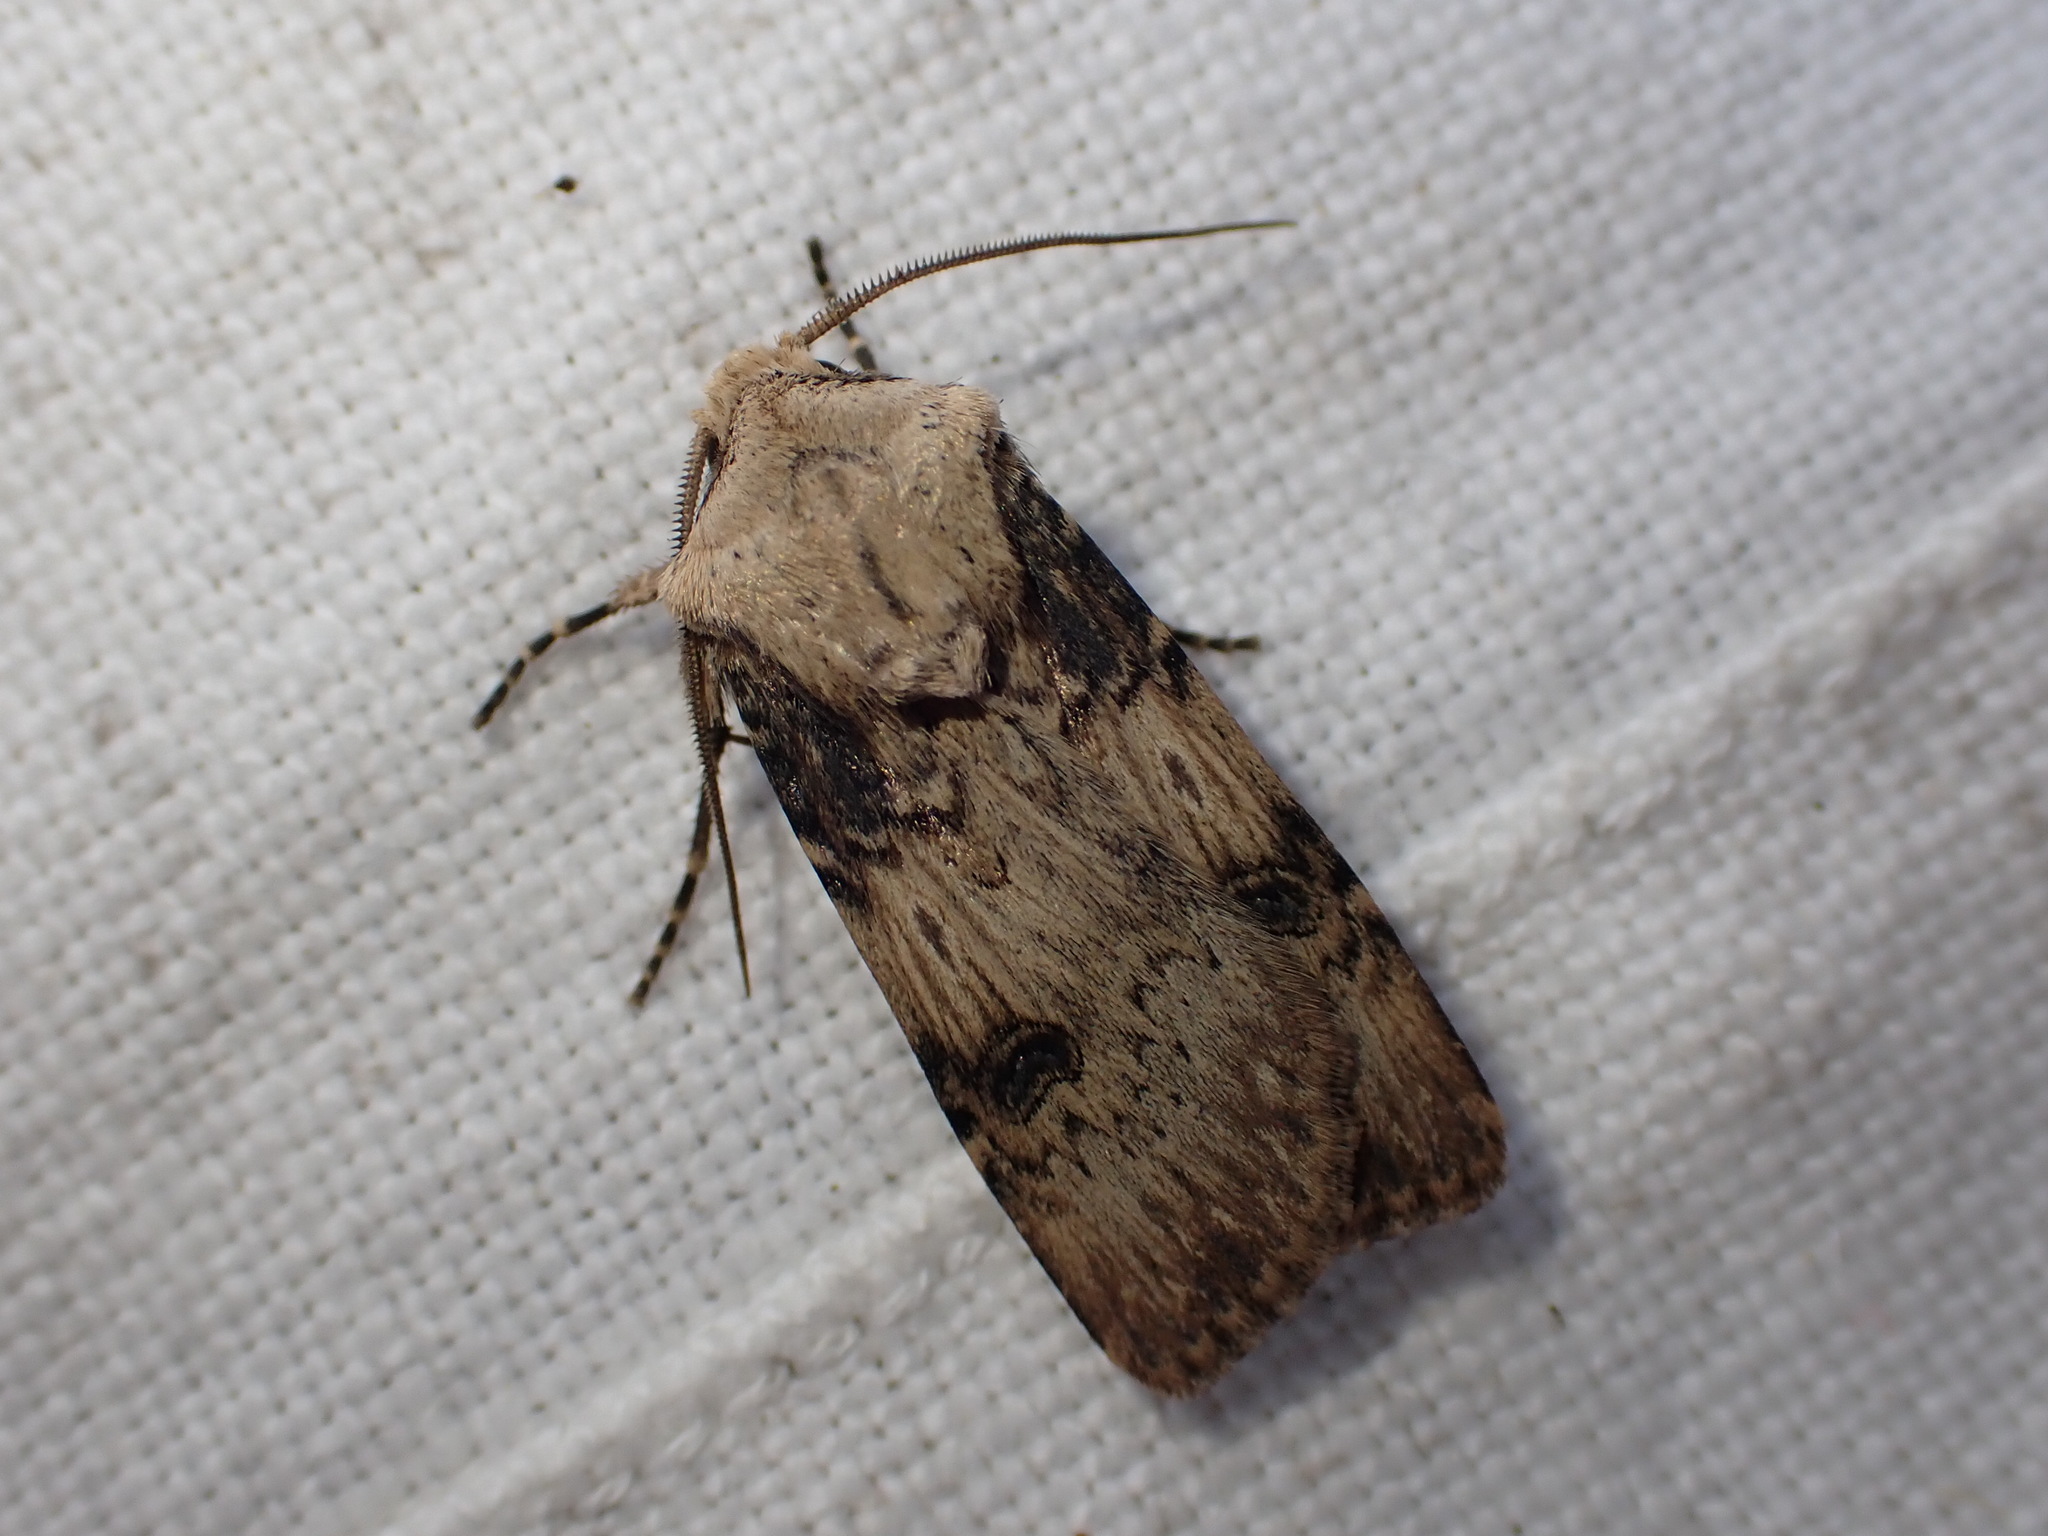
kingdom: Animalia
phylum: Arthropoda
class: Insecta
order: Lepidoptera
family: Noctuidae
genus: Agrotis
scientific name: Agrotis puta
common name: Shuttle-shaped dart
